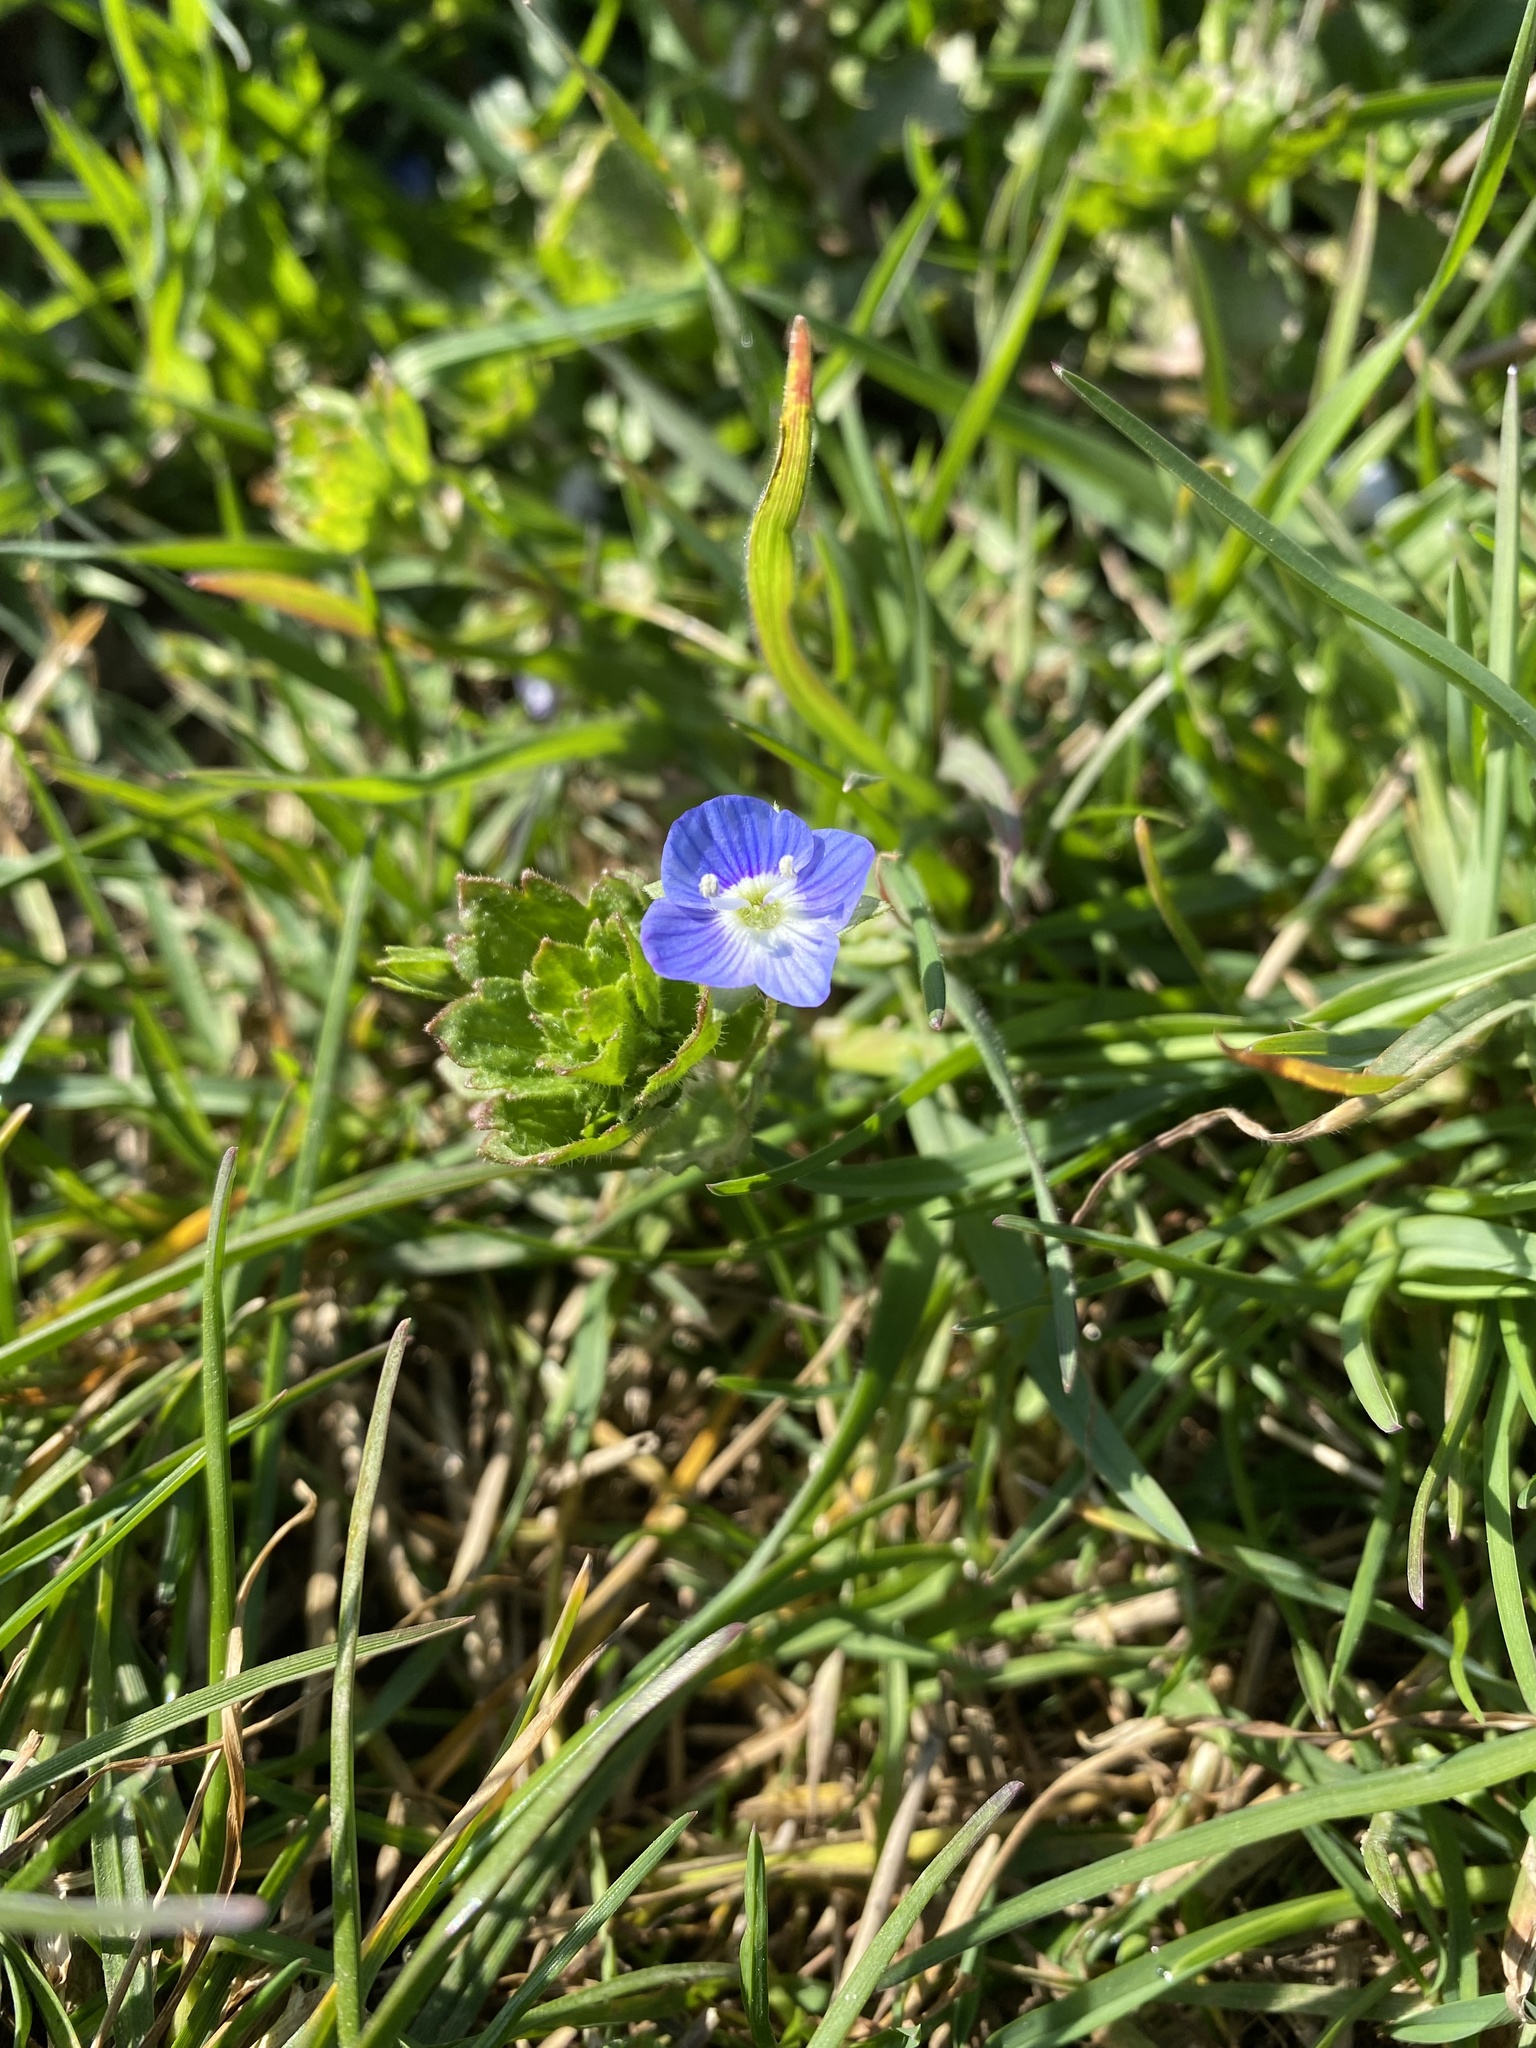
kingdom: Plantae
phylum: Tracheophyta
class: Magnoliopsida
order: Lamiales
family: Plantaginaceae
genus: Veronica
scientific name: Veronica persica
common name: Common field-speedwell
